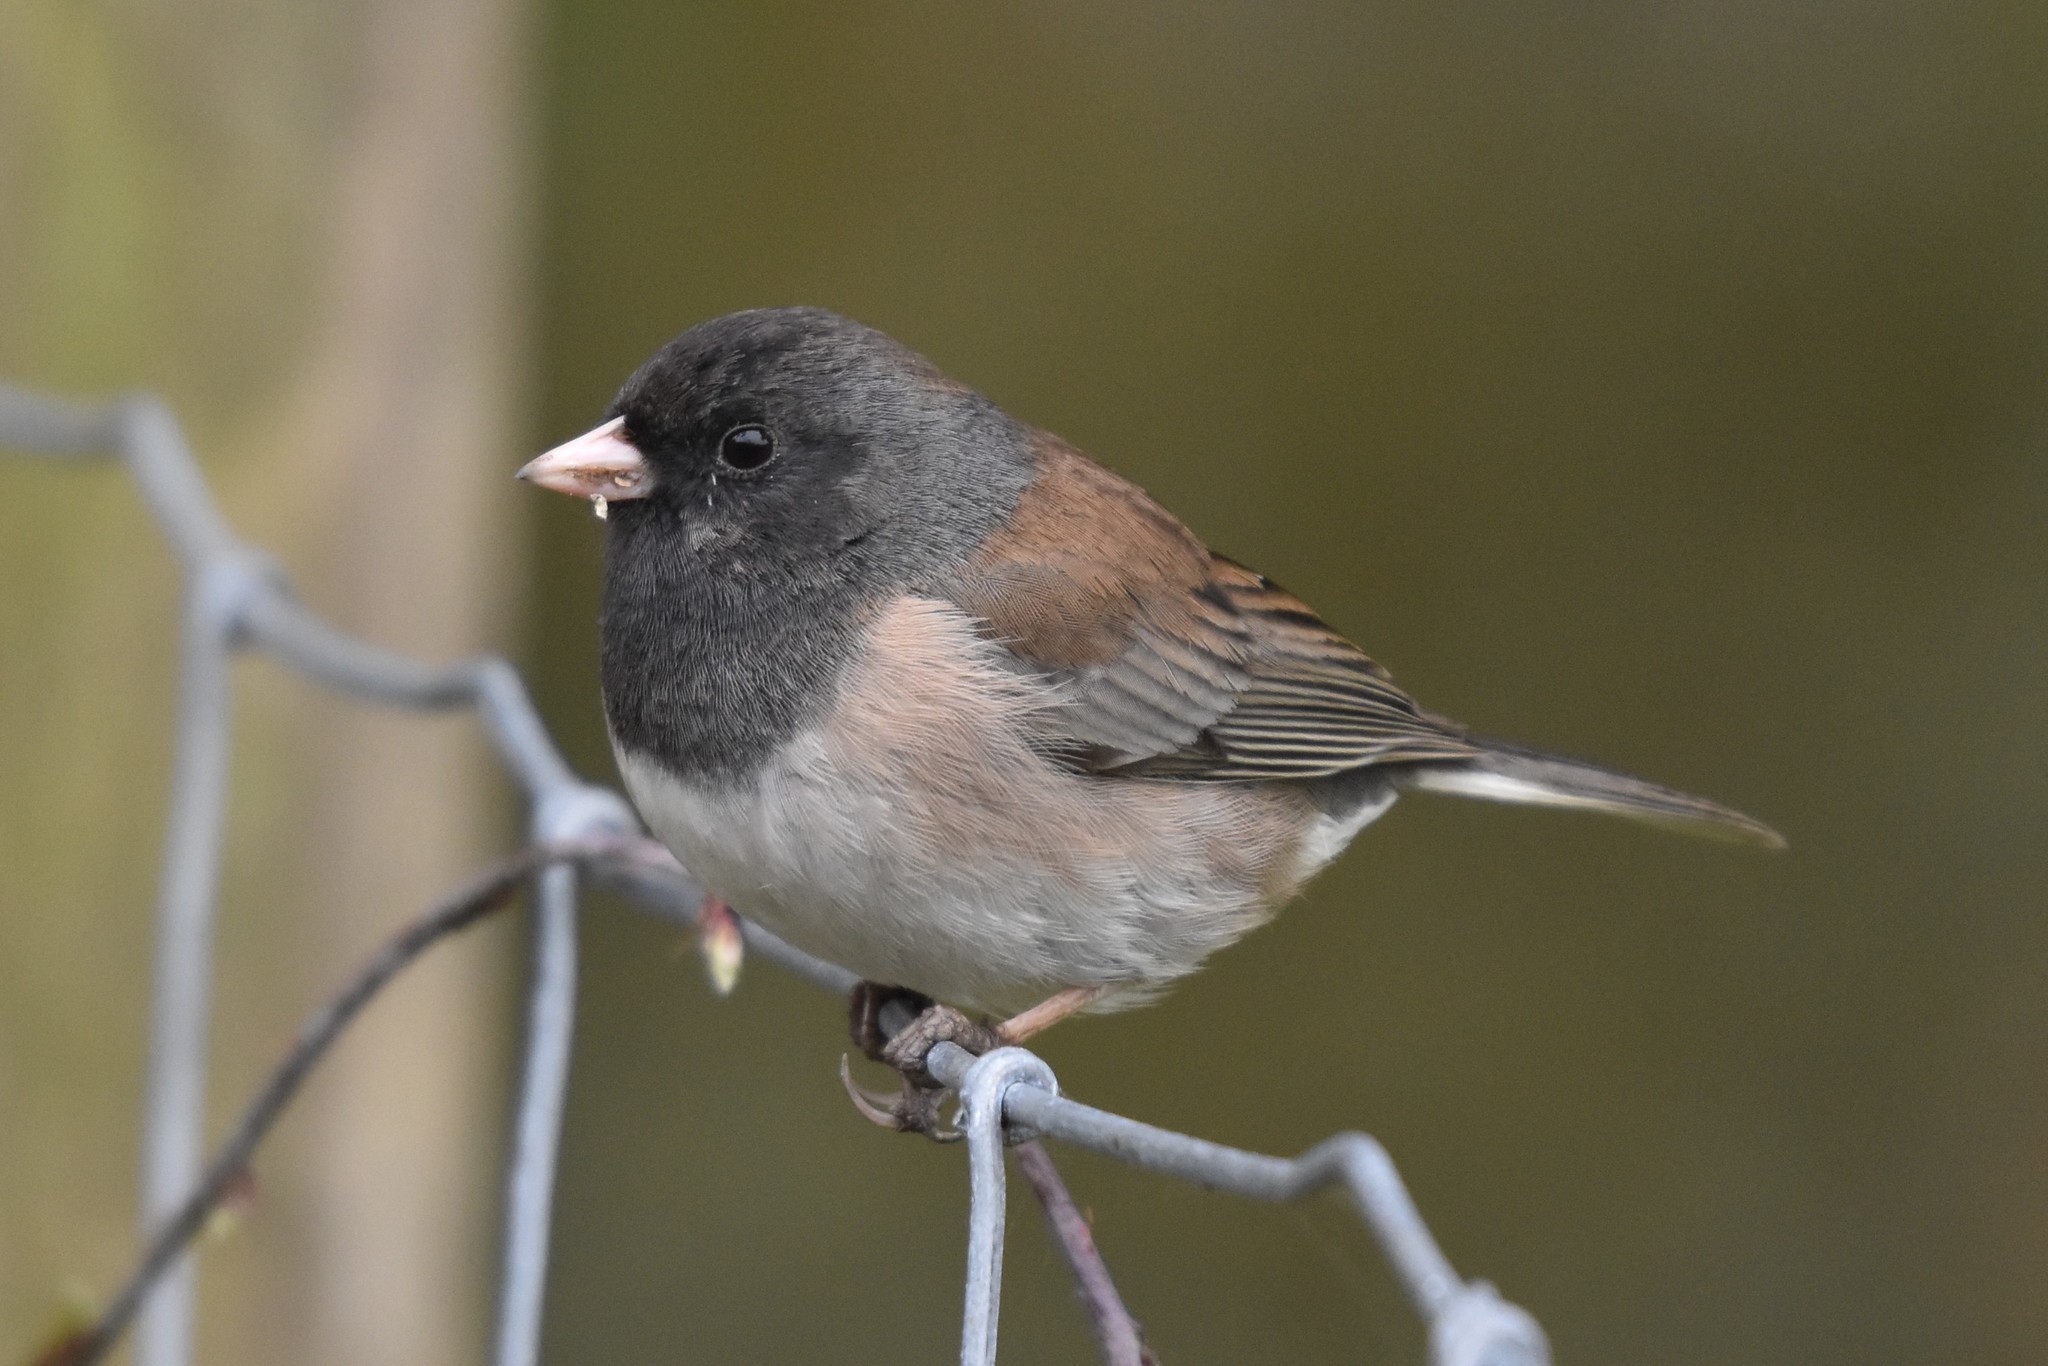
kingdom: Animalia
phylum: Chordata
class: Aves
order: Passeriformes
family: Passerellidae
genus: Junco
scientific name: Junco hyemalis
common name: Dark-eyed junco
